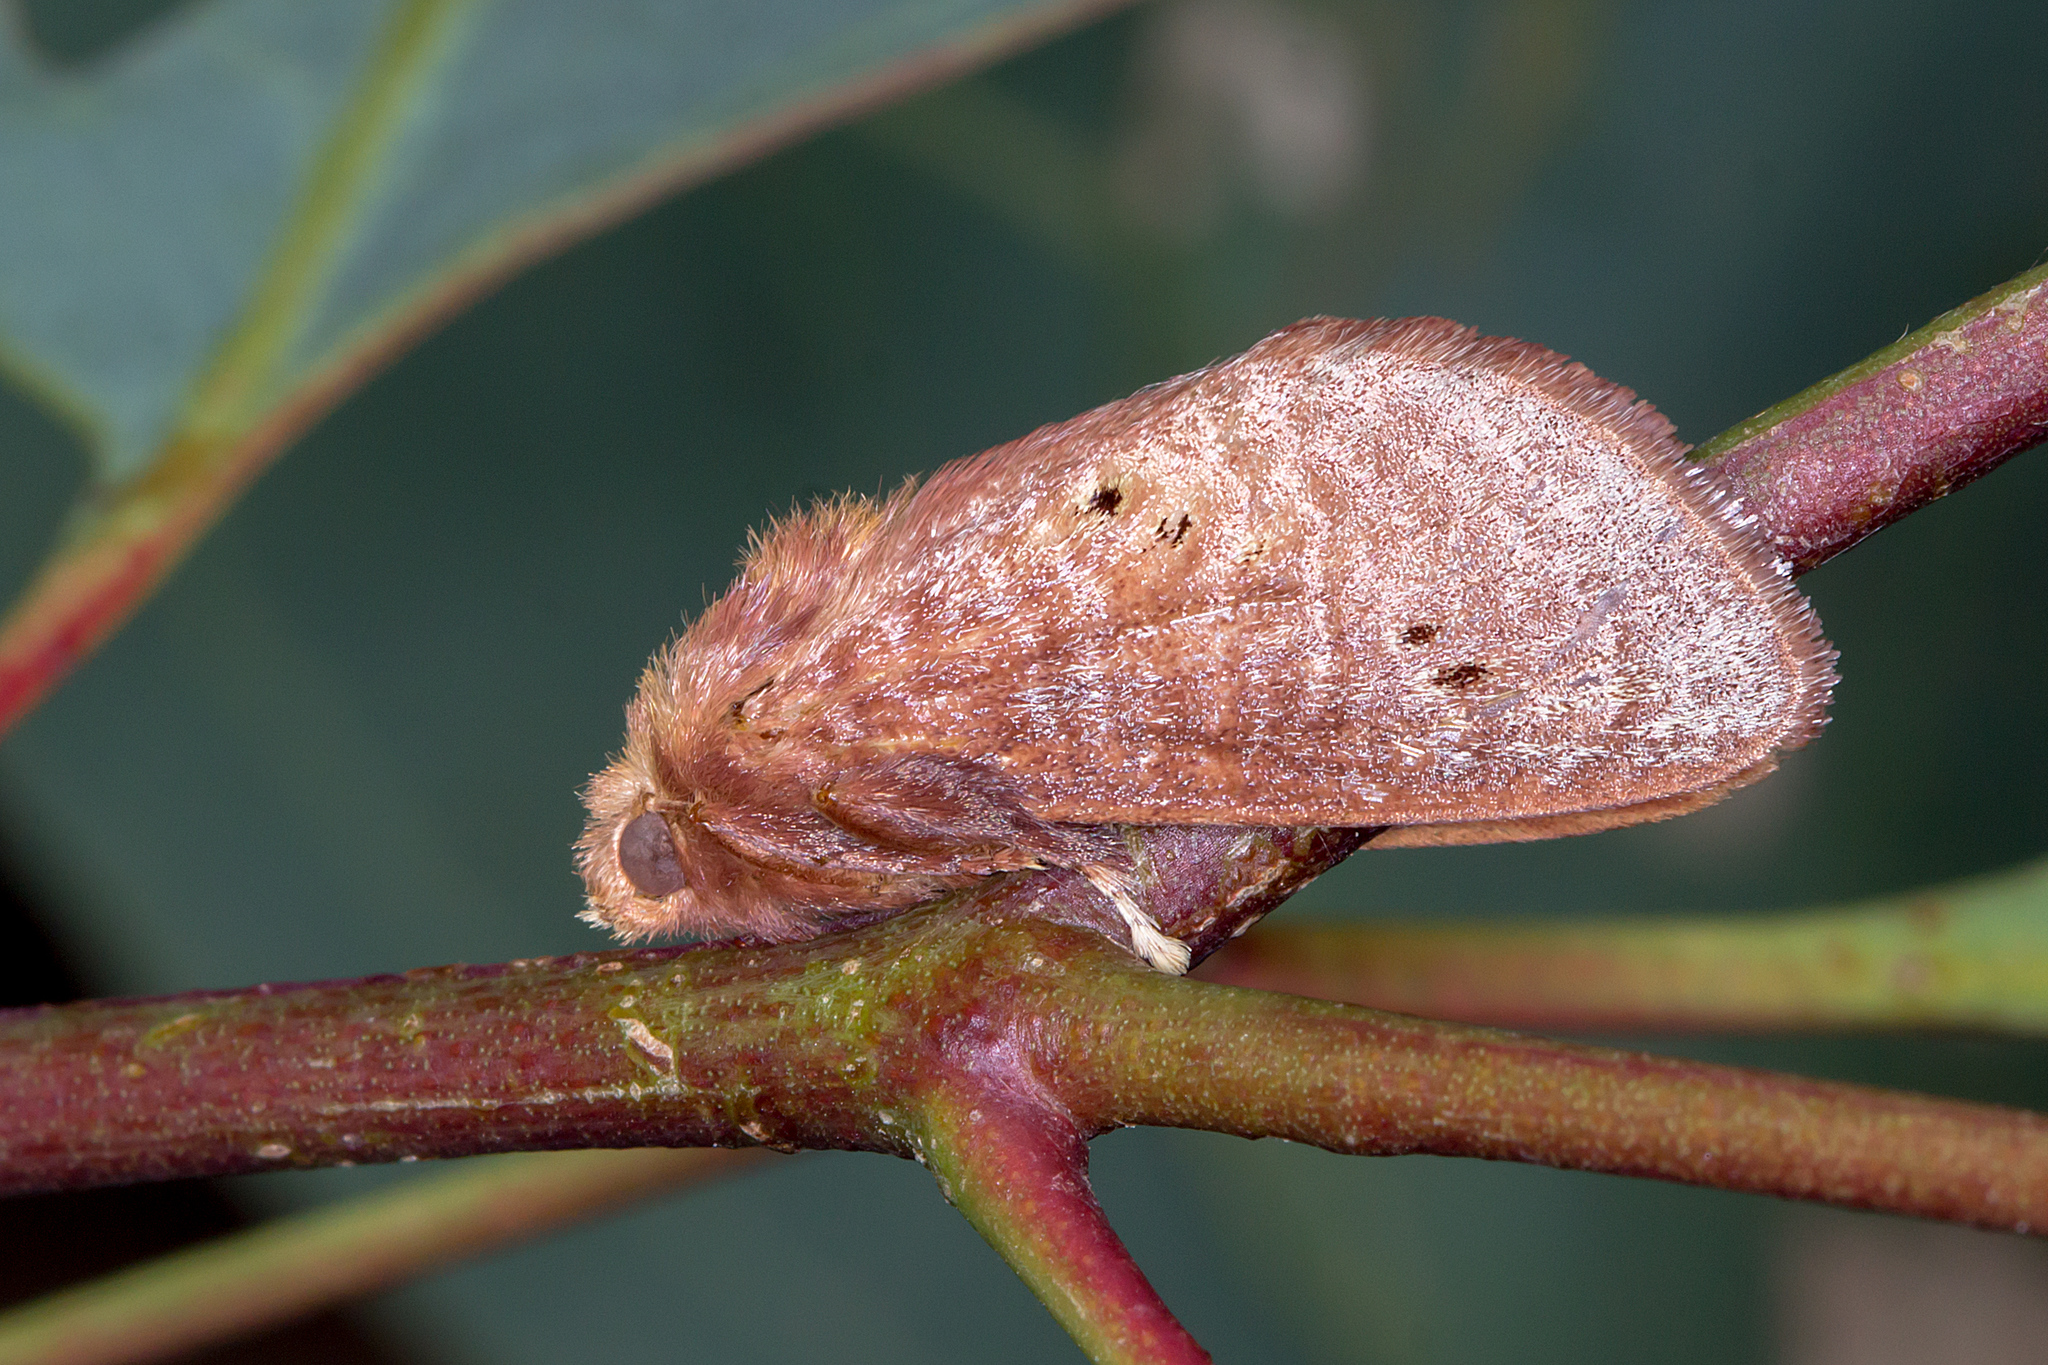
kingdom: Animalia
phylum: Arthropoda
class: Insecta
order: Lepidoptera
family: Limacodidae
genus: Doratifera
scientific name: Doratifera quadriguttata
